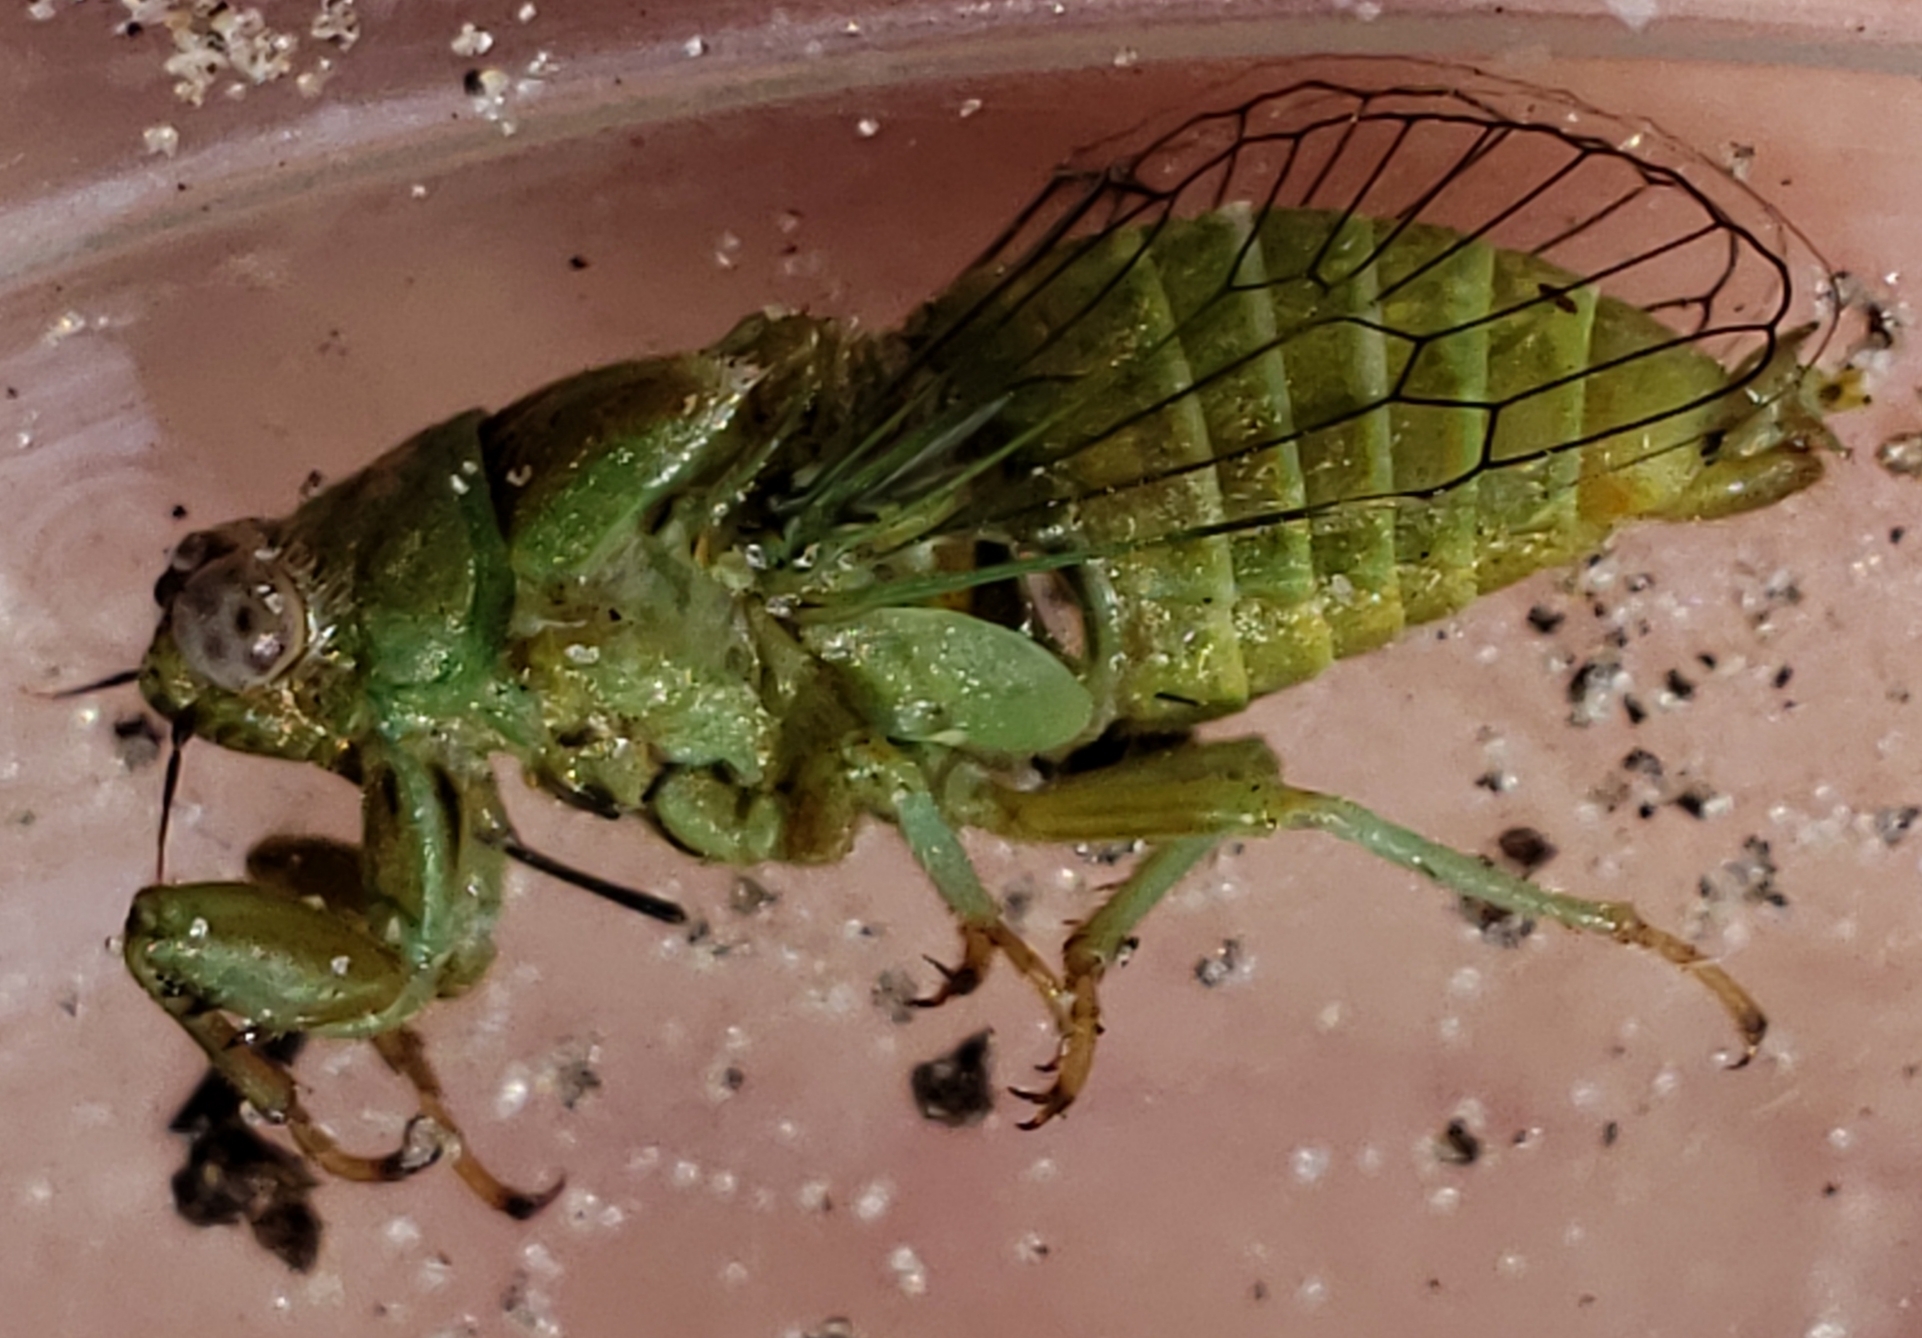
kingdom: Animalia
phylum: Arthropoda
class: Insecta
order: Hemiptera
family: Cicadidae
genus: Cicadettana
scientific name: Cicadettana calliope
